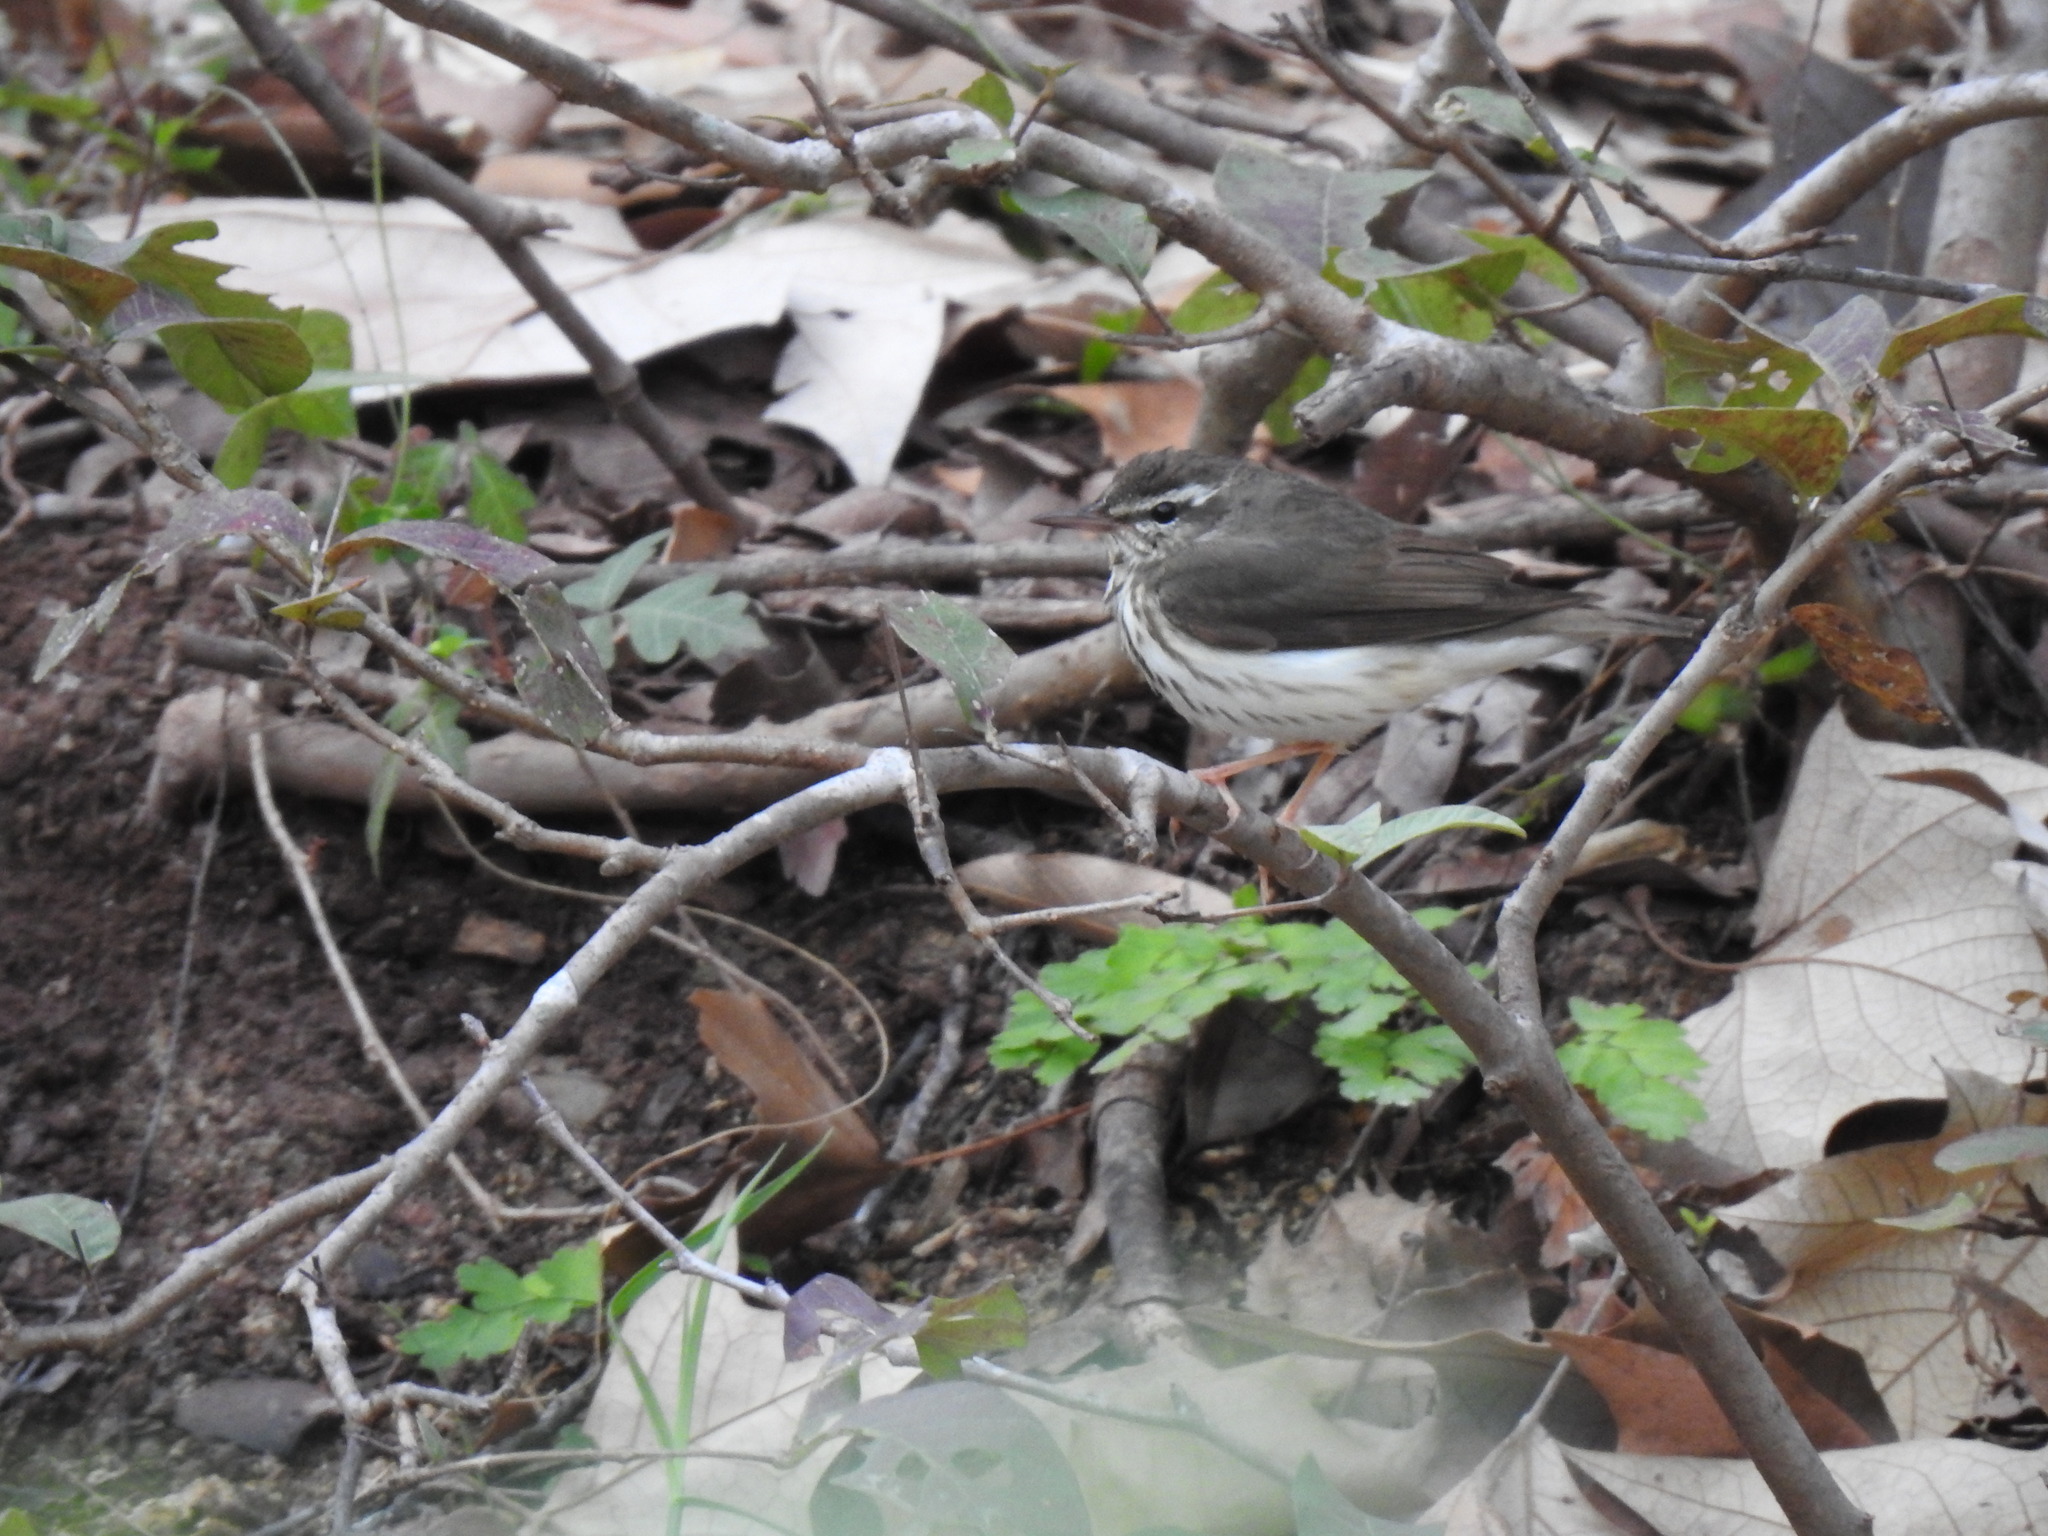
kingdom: Animalia
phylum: Chordata
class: Aves
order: Passeriformes
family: Parulidae
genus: Parkesia
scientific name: Parkesia motacilla
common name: Louisiana waterthrush
